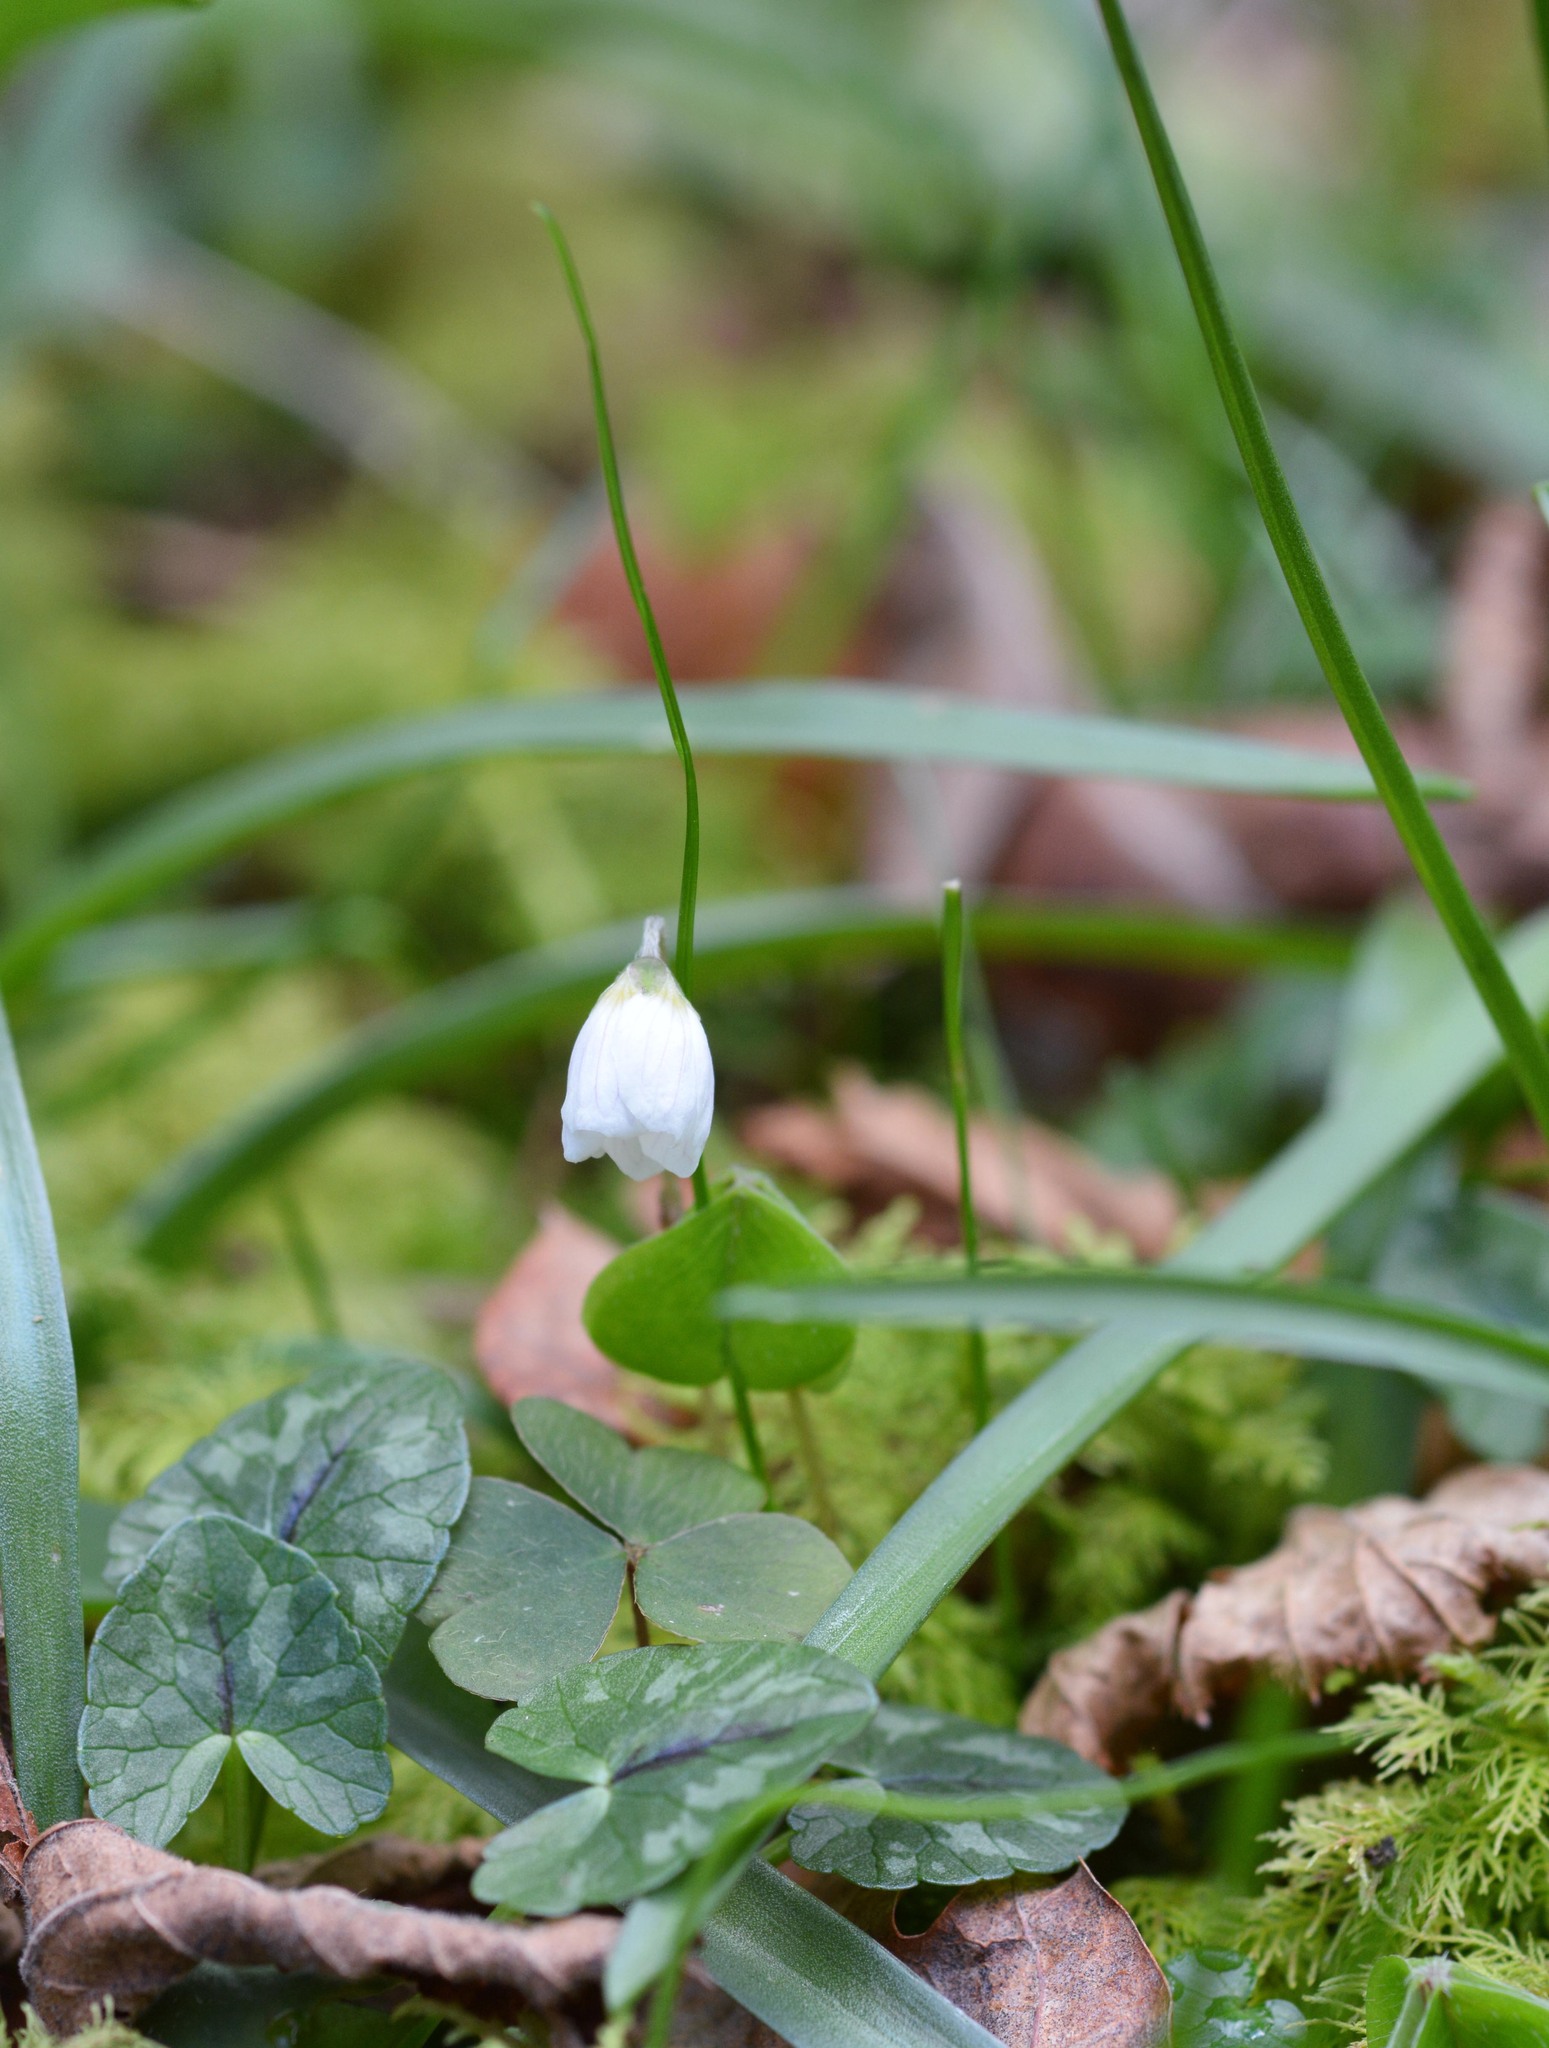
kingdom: Plantae
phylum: Tracheophyta
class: Magnoliopsida
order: Oxalidales
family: Oxalidaceae
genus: Oxalis
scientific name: Oxalis acetosella
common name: Wood-sorrel
